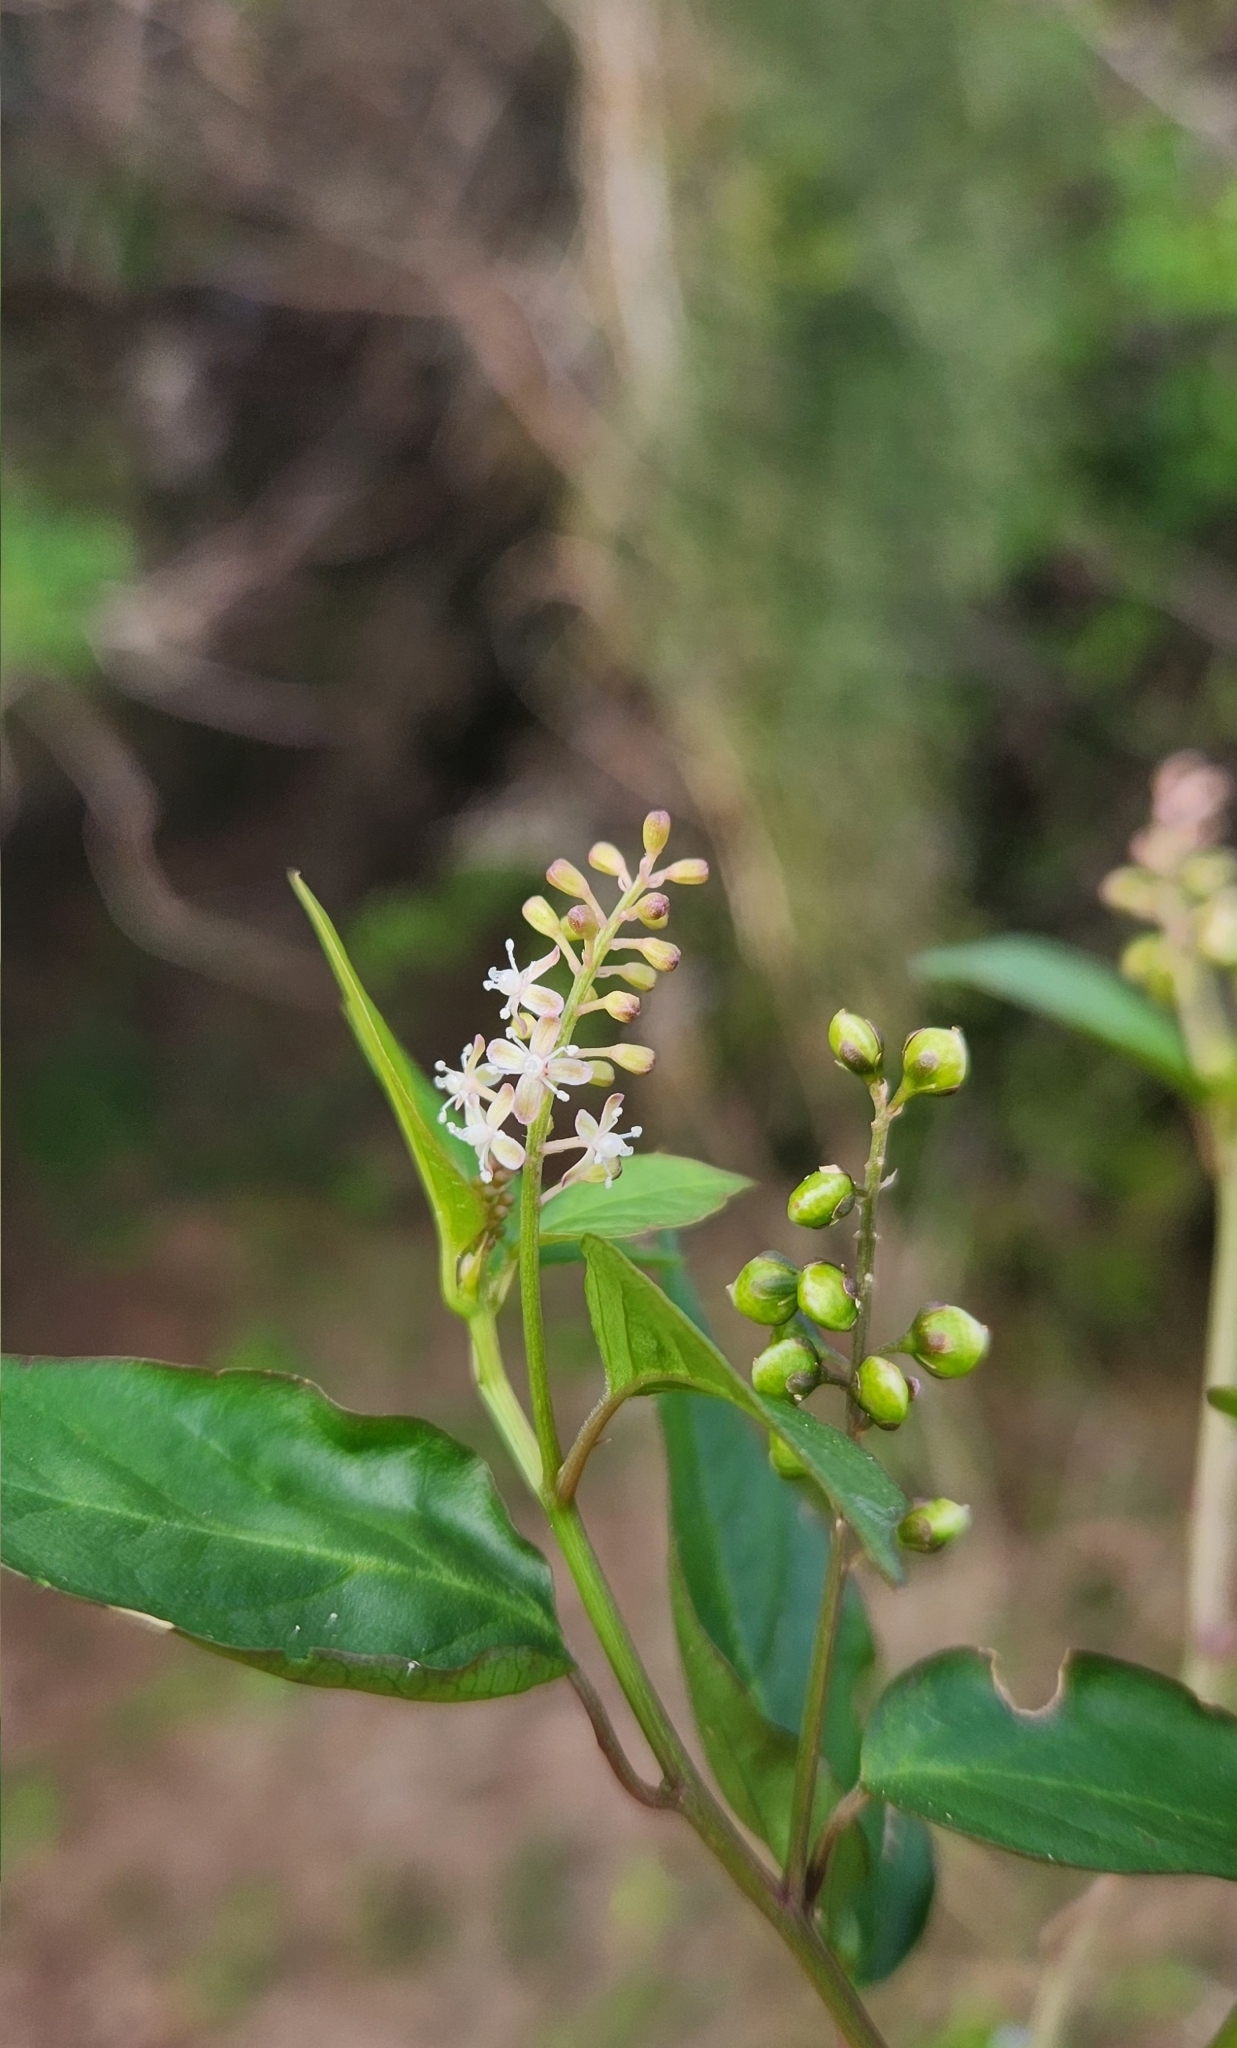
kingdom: Plantae
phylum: Tracheophyta
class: Magnoliopsida
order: Caryophyllales
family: Phytolaccaceae
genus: Rivina
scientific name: Rivina humilis
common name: Rougeplant
